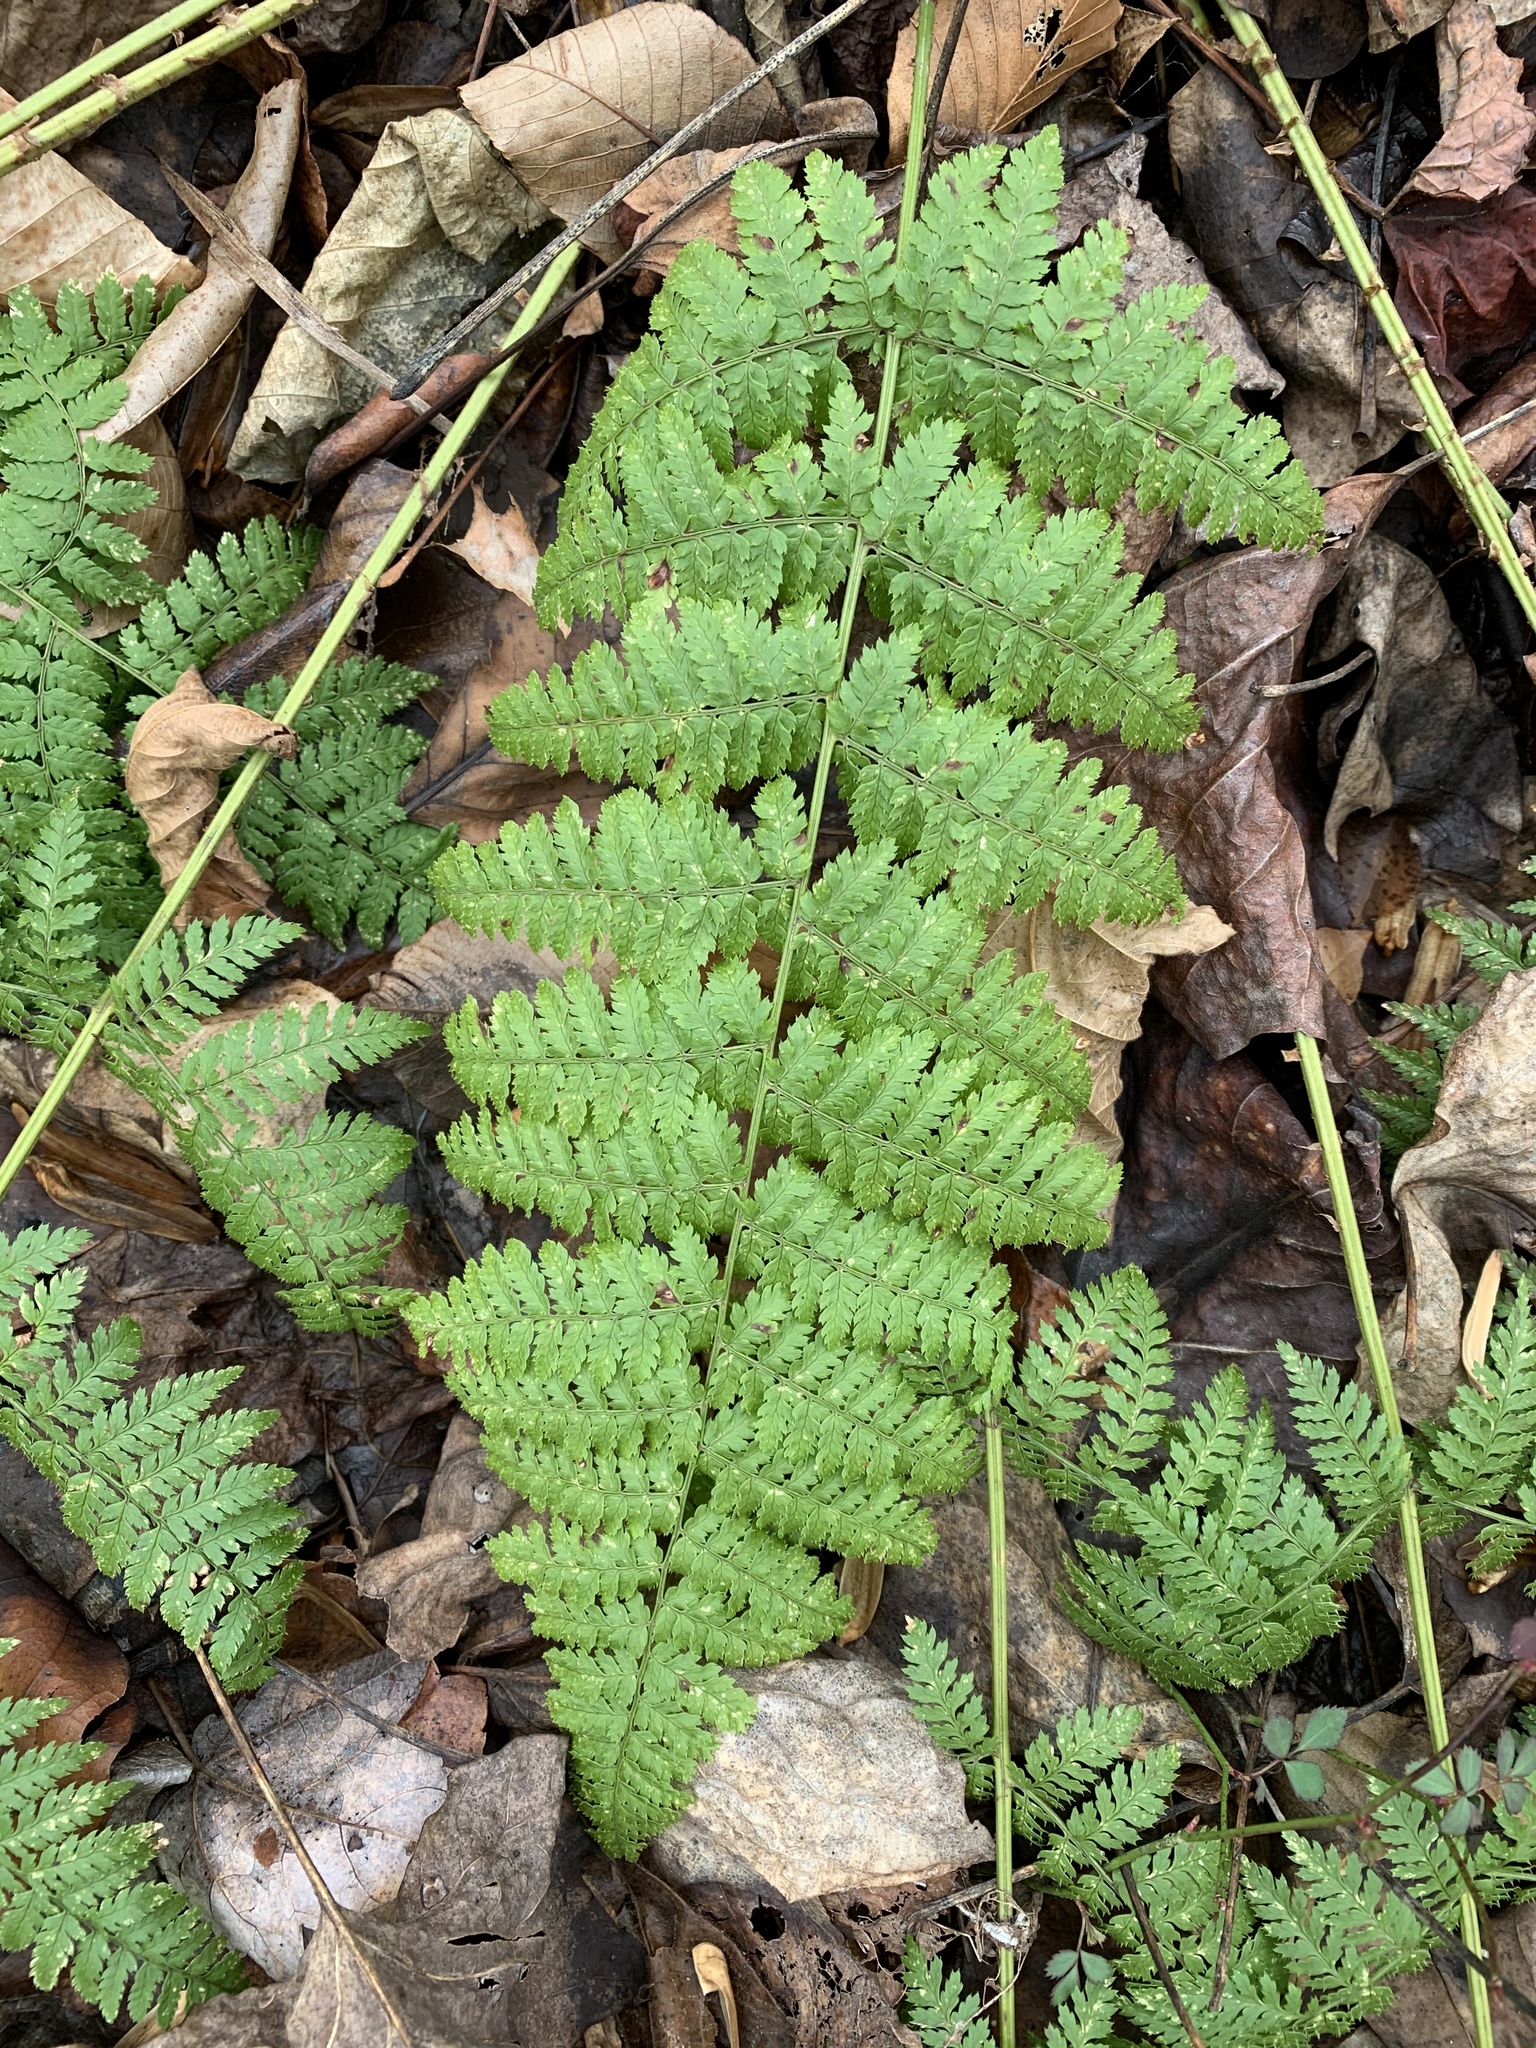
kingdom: Plantae
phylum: Tracheophyta
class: Polypodiopsida
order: Polypodiales
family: Dryopteridaceae
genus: Dryopteris
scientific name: Dryopteris intermedia
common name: Evergreen wood fern
